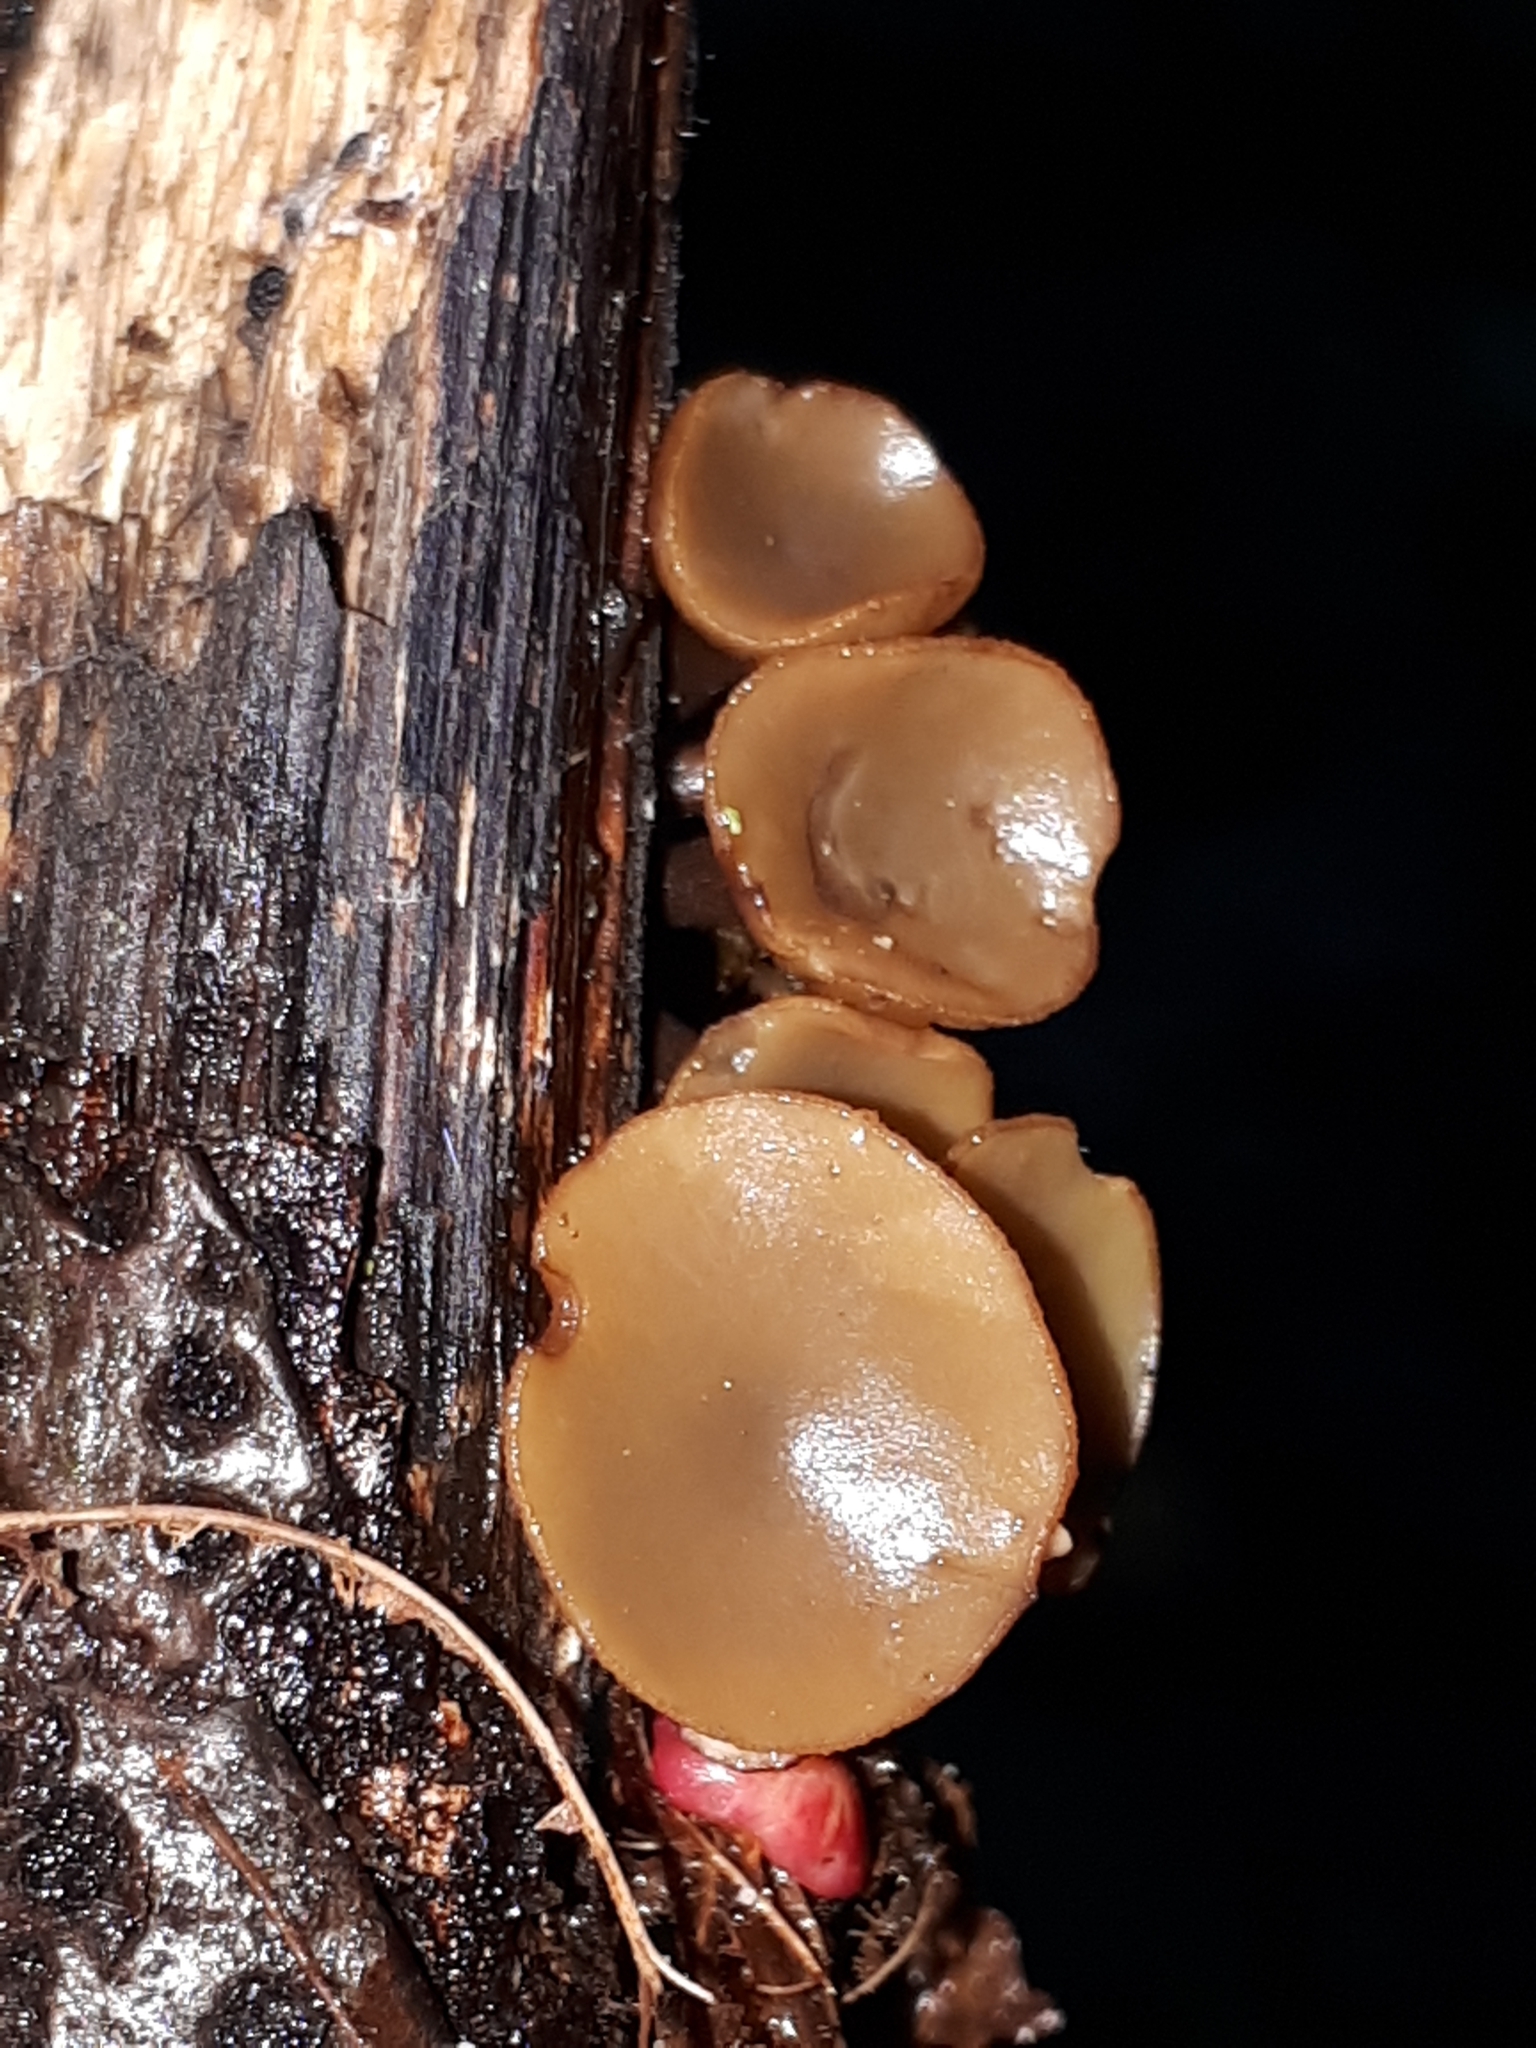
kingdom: Fungi
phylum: Ascomycota
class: Leotiomycetes
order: Helotiales
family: Rutstroemiaceae
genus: Rutstroemia
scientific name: Rutstroemia firma
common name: Brown cup
